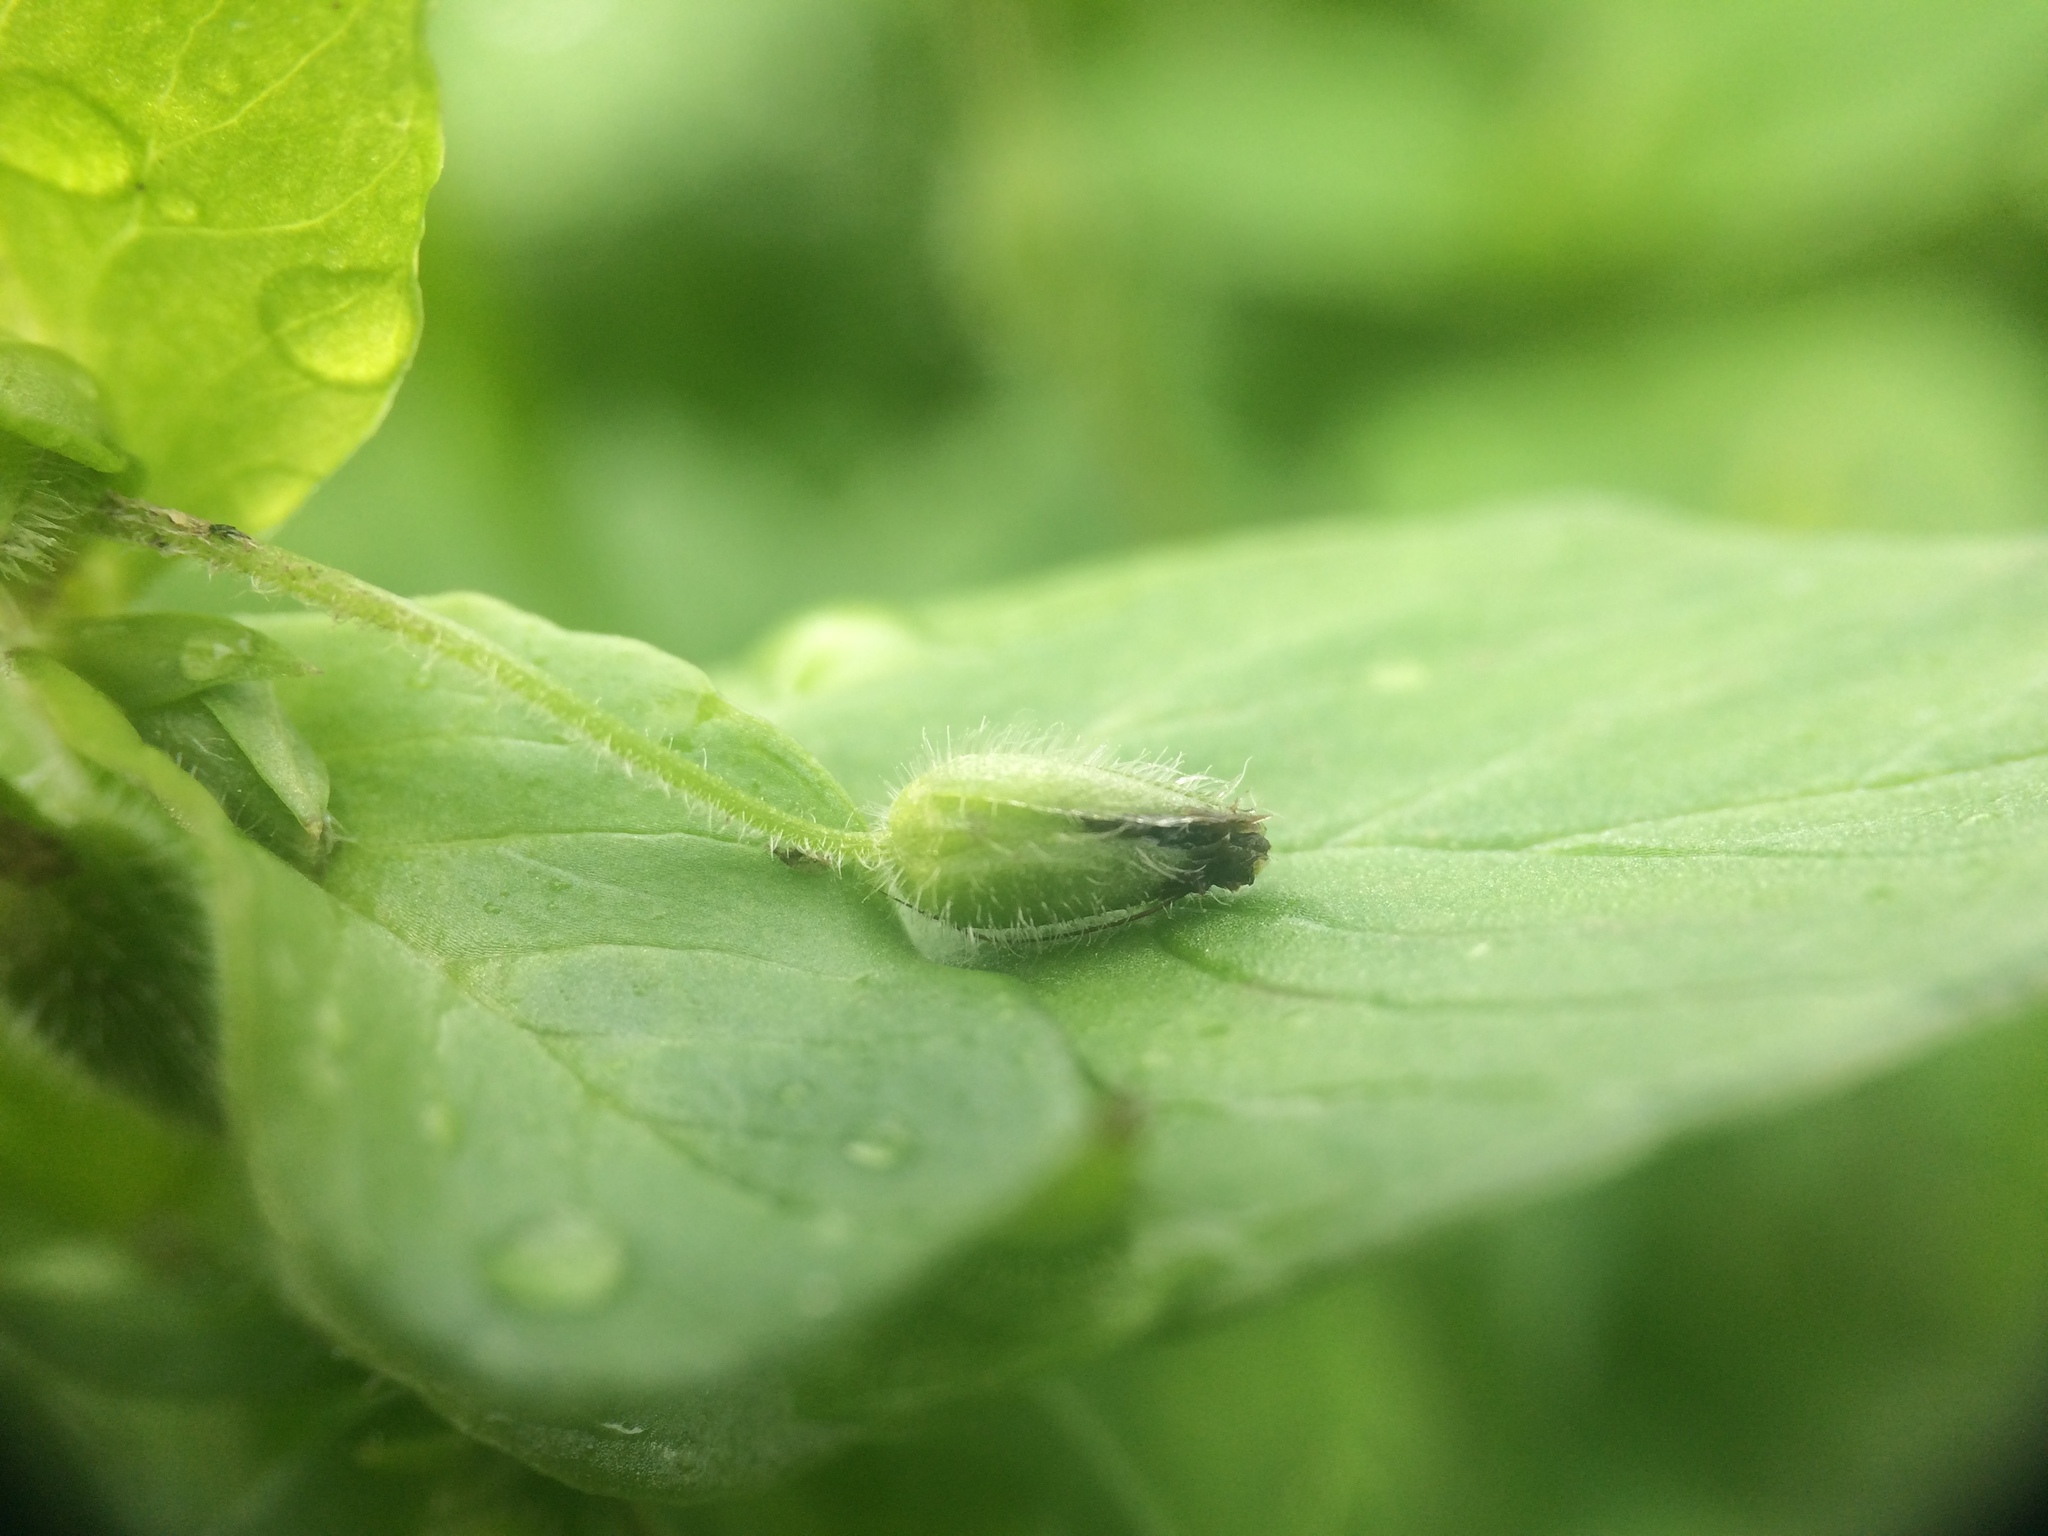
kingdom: Plantae
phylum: Tracheophyta
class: Magnoliopsida
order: Caryophyllales
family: Caryophyllaceae
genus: Stellaria
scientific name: Stellaria media
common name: Common chickweed
